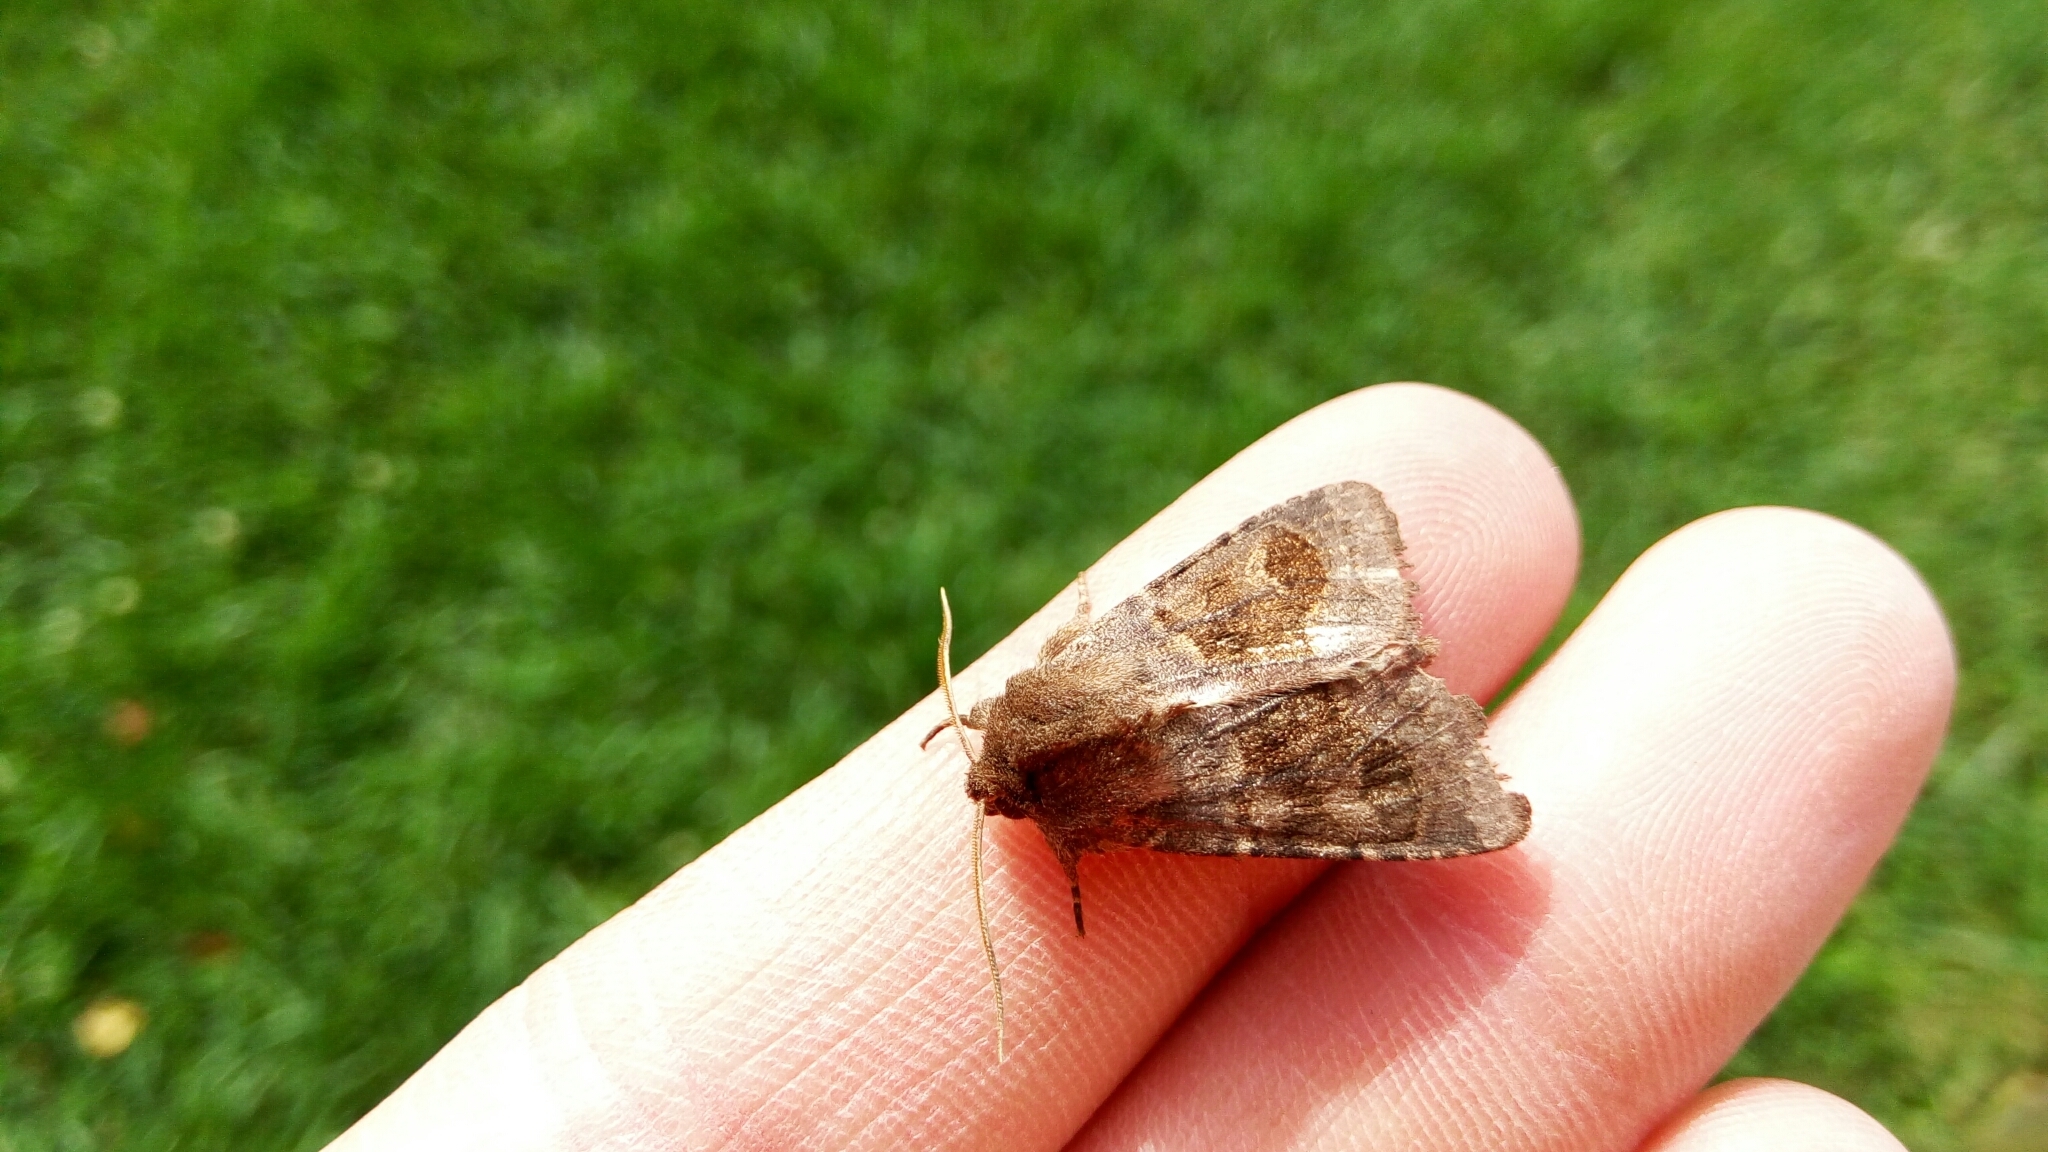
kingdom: Animalia
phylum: Arthropoda
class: Insecta
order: Lepidoptera
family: Noctuidae
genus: Nephelodes
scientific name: Nephelodes minians
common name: Bronzed cutworm
